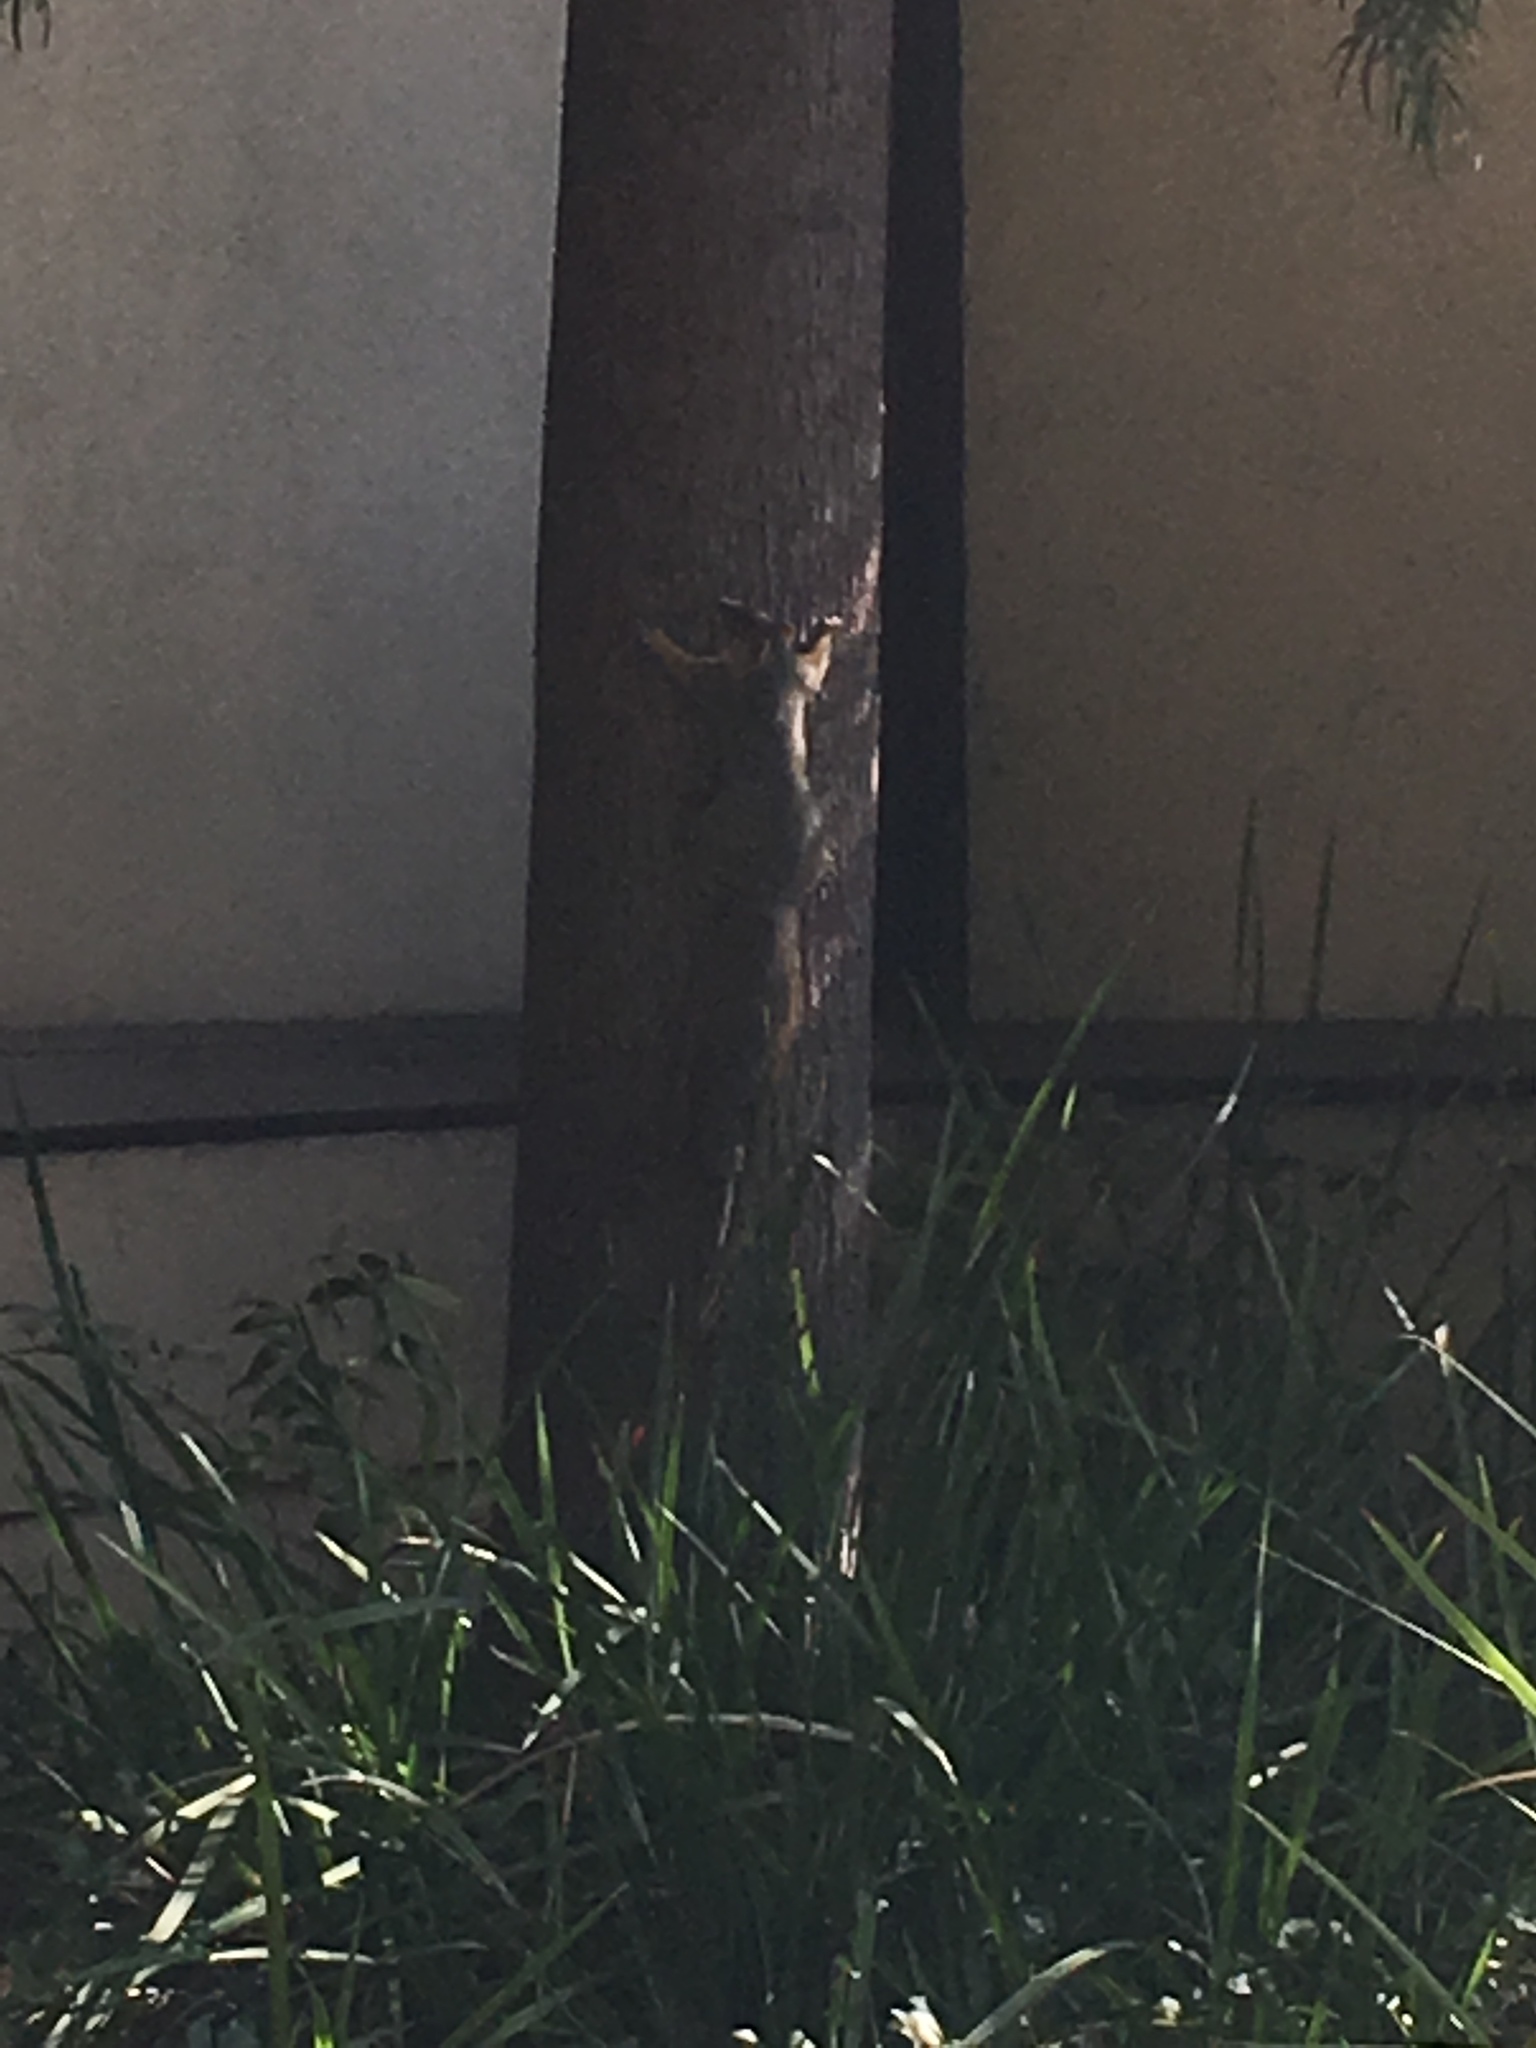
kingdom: Animalia
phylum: Chordata
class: Mammalia
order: Rodentia
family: Sciuridae
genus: Sciurus
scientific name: Sciurus niger
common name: Fox squirrel
